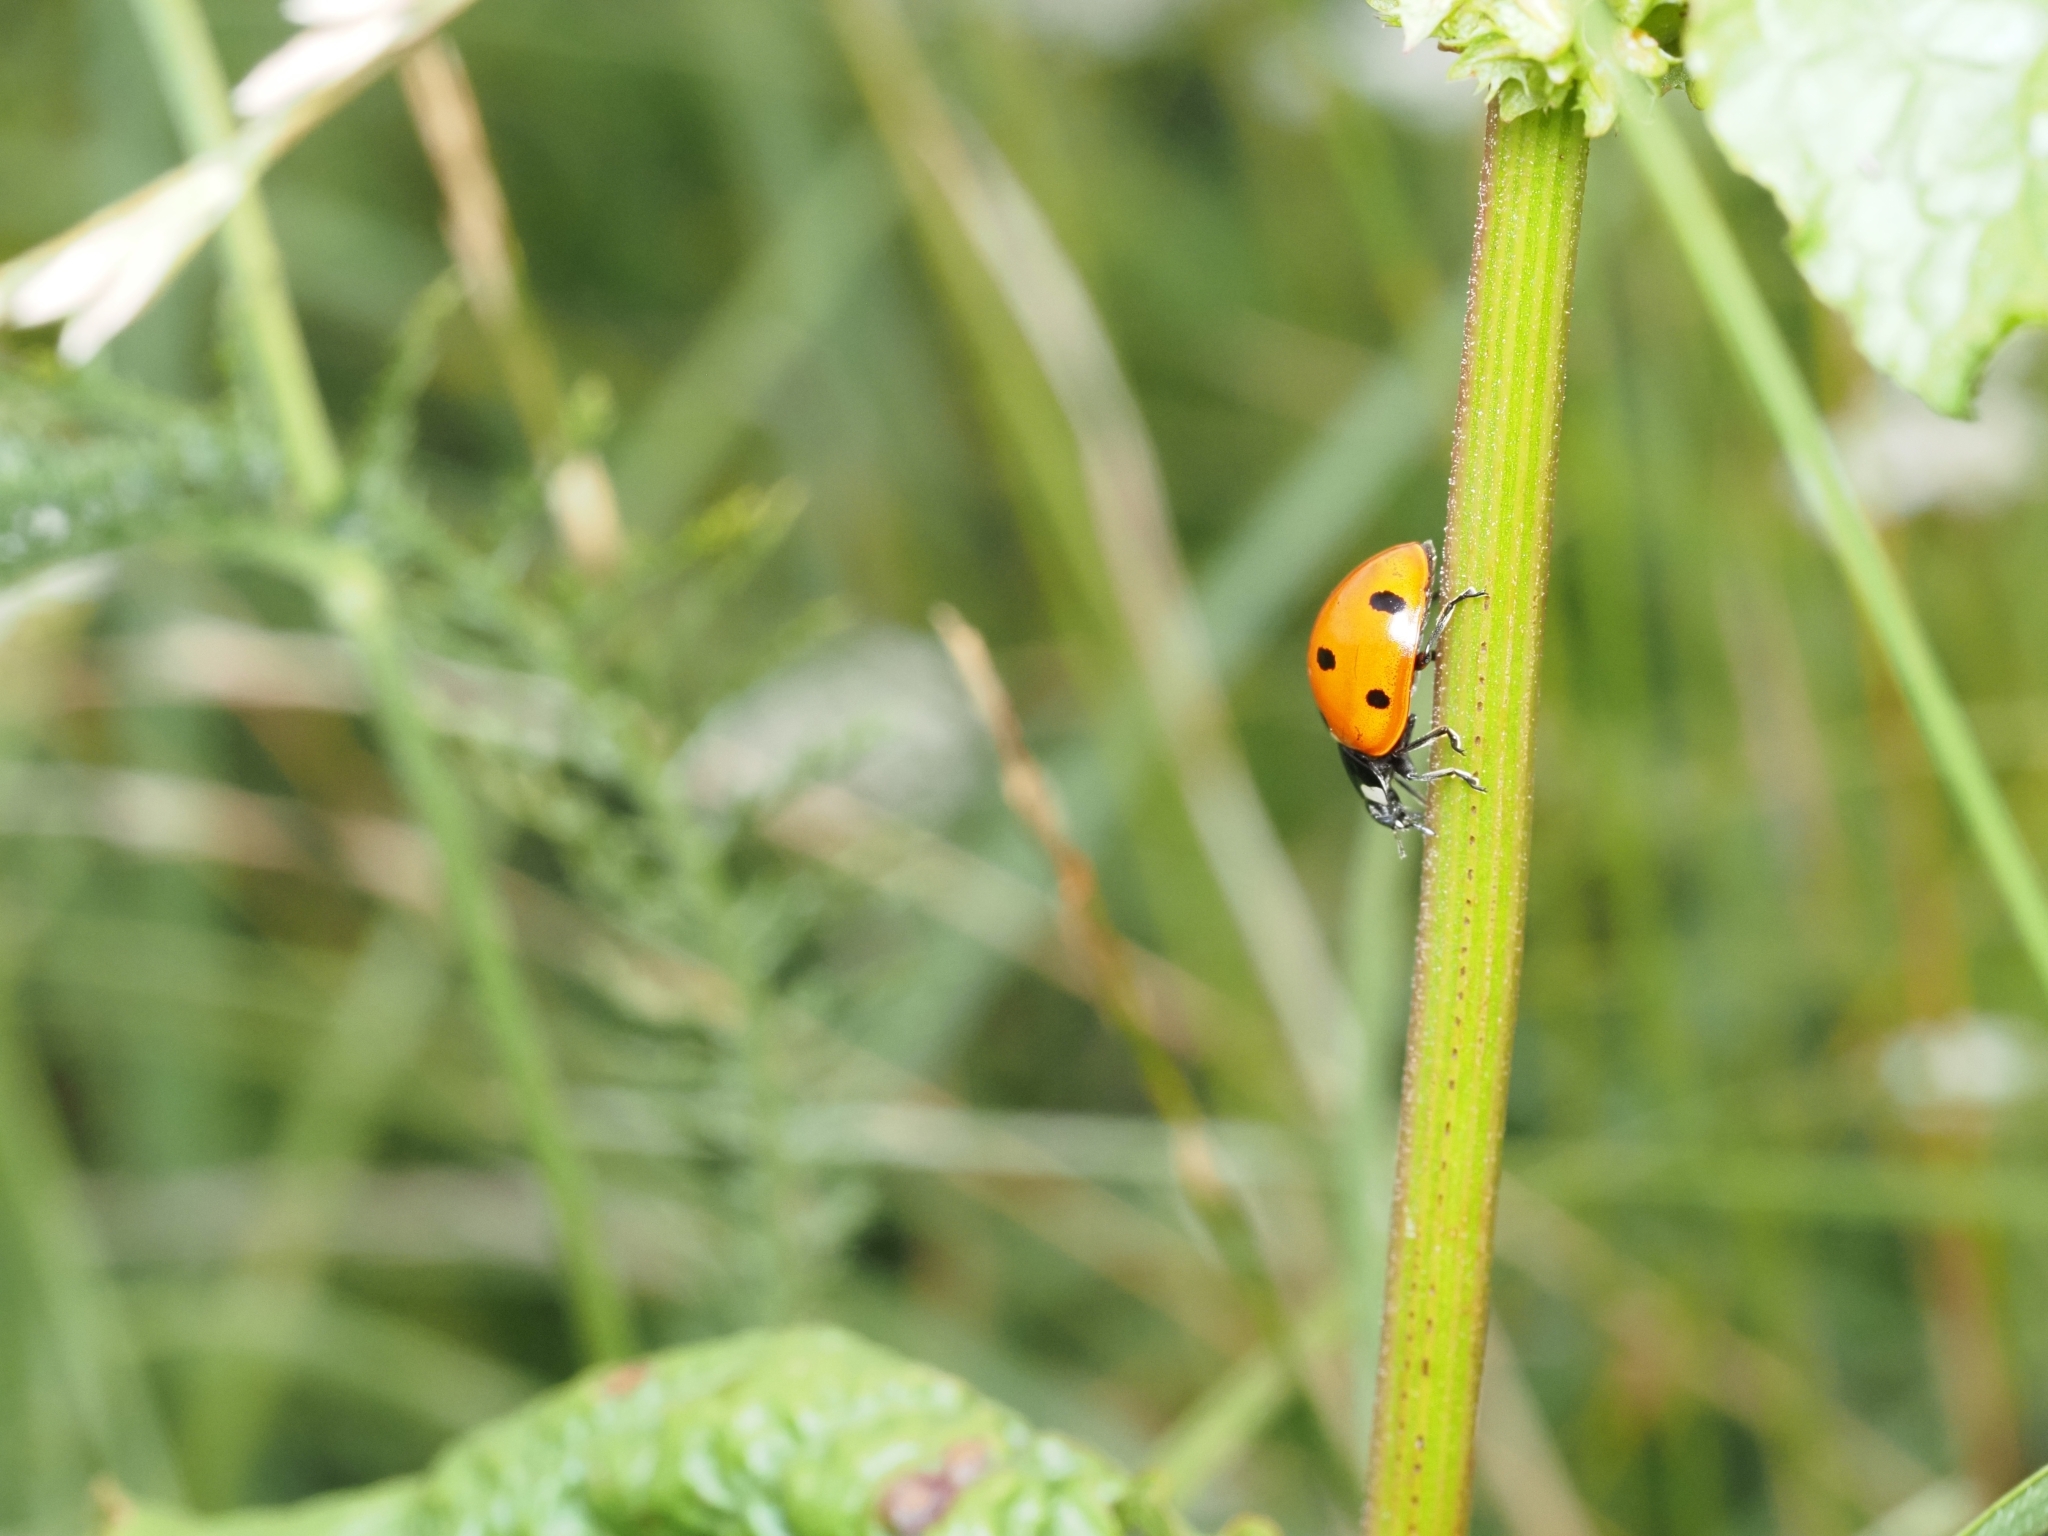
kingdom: Animalia
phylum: Arthropoda
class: Insecta
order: Coleoptera
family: Coccinellidae
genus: Coccinella
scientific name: Coccinella septempunctata
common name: Sevenspotted lady beetle
